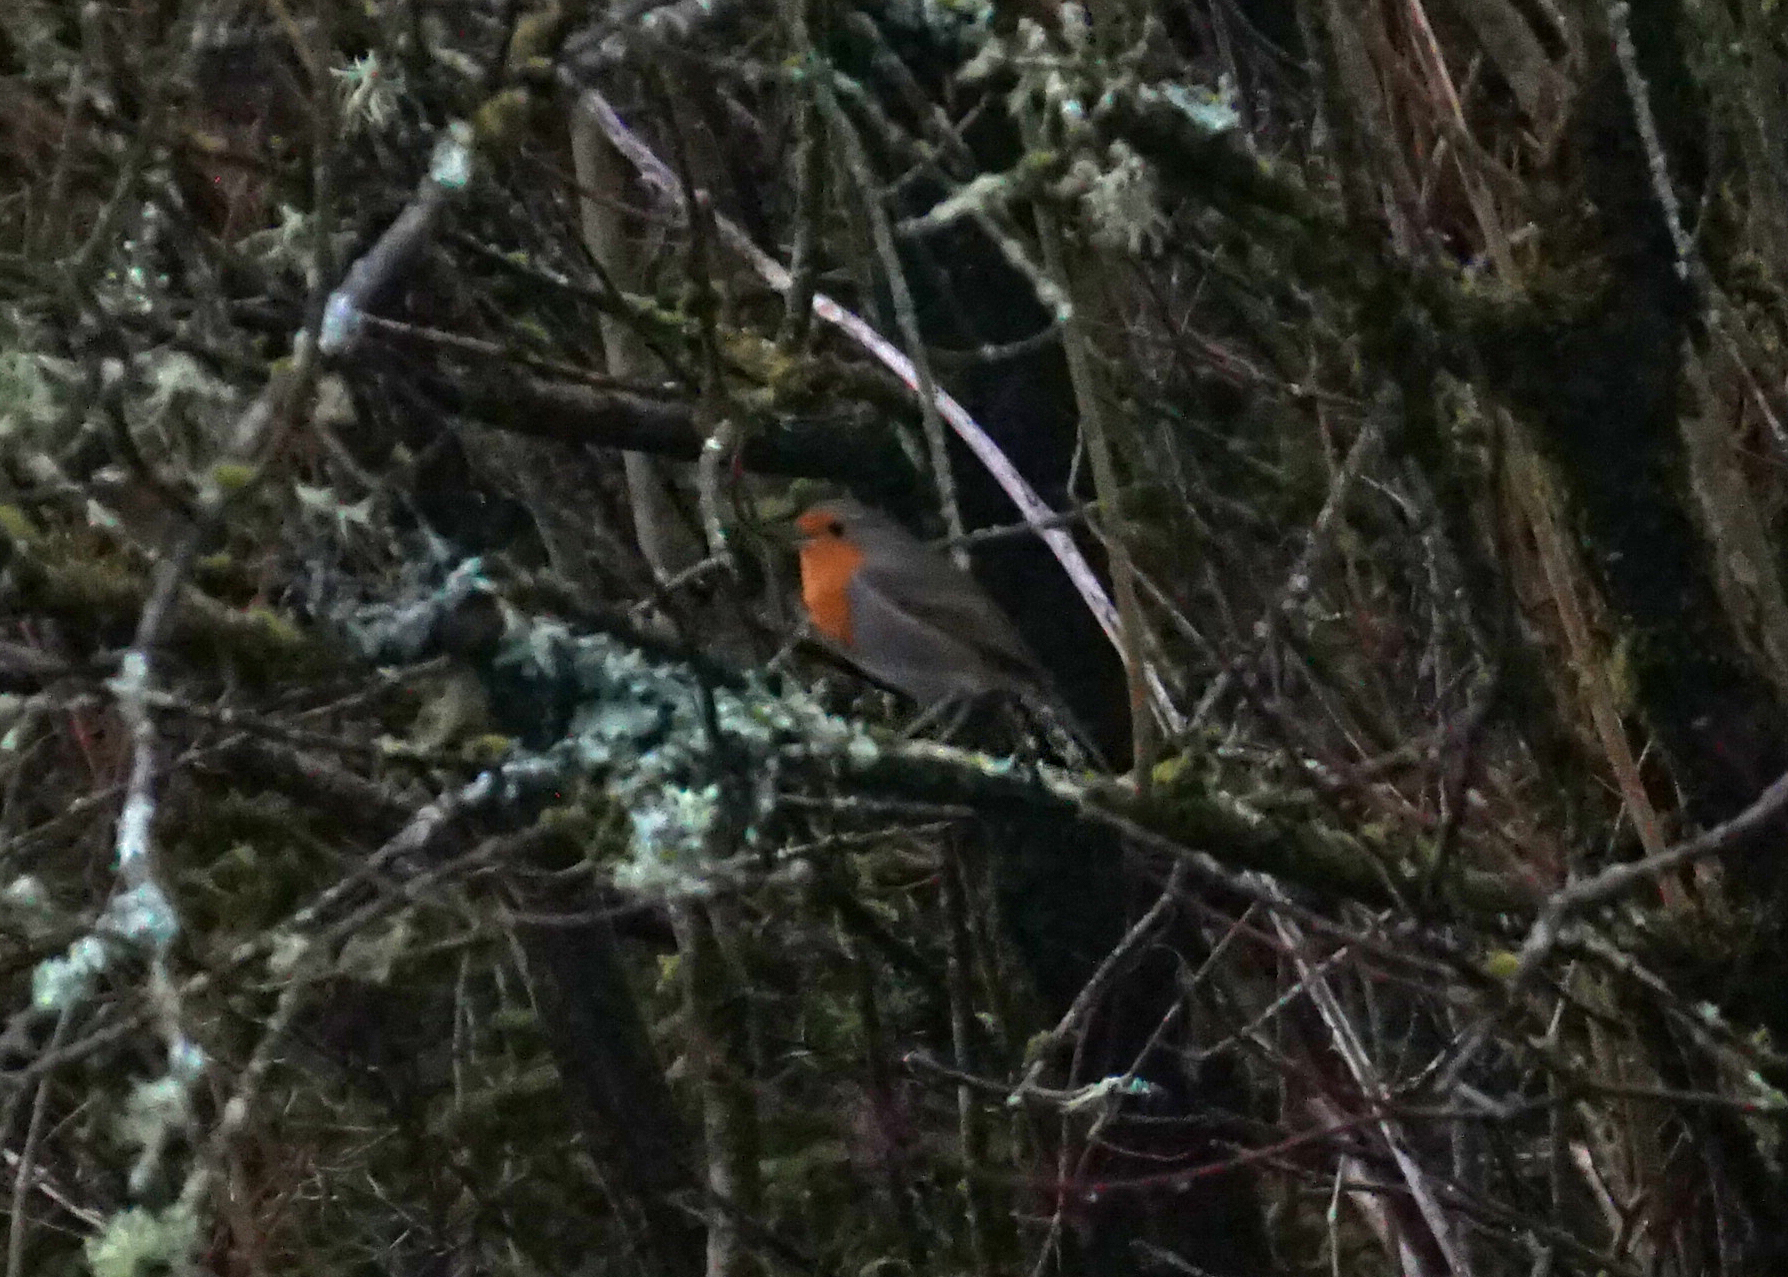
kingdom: Animalia
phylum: Chordata
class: Aves
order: Passeriformes
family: Muscicapidae
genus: Erithacus
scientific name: Erithacus rubecula
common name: European robin
